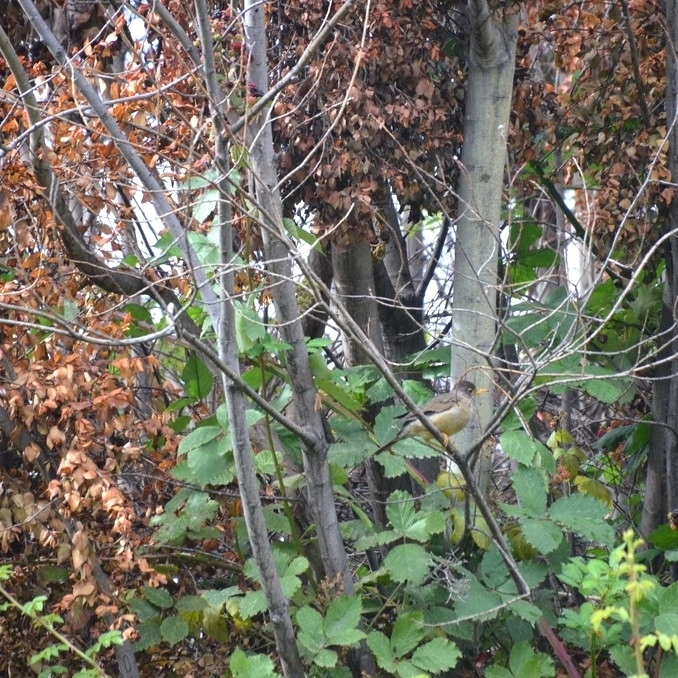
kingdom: Animalia
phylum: Chordata
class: Aves
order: Passeriformes
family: Turdidae
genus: Turdus
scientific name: Turdus falcklandii
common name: Austral thrush
